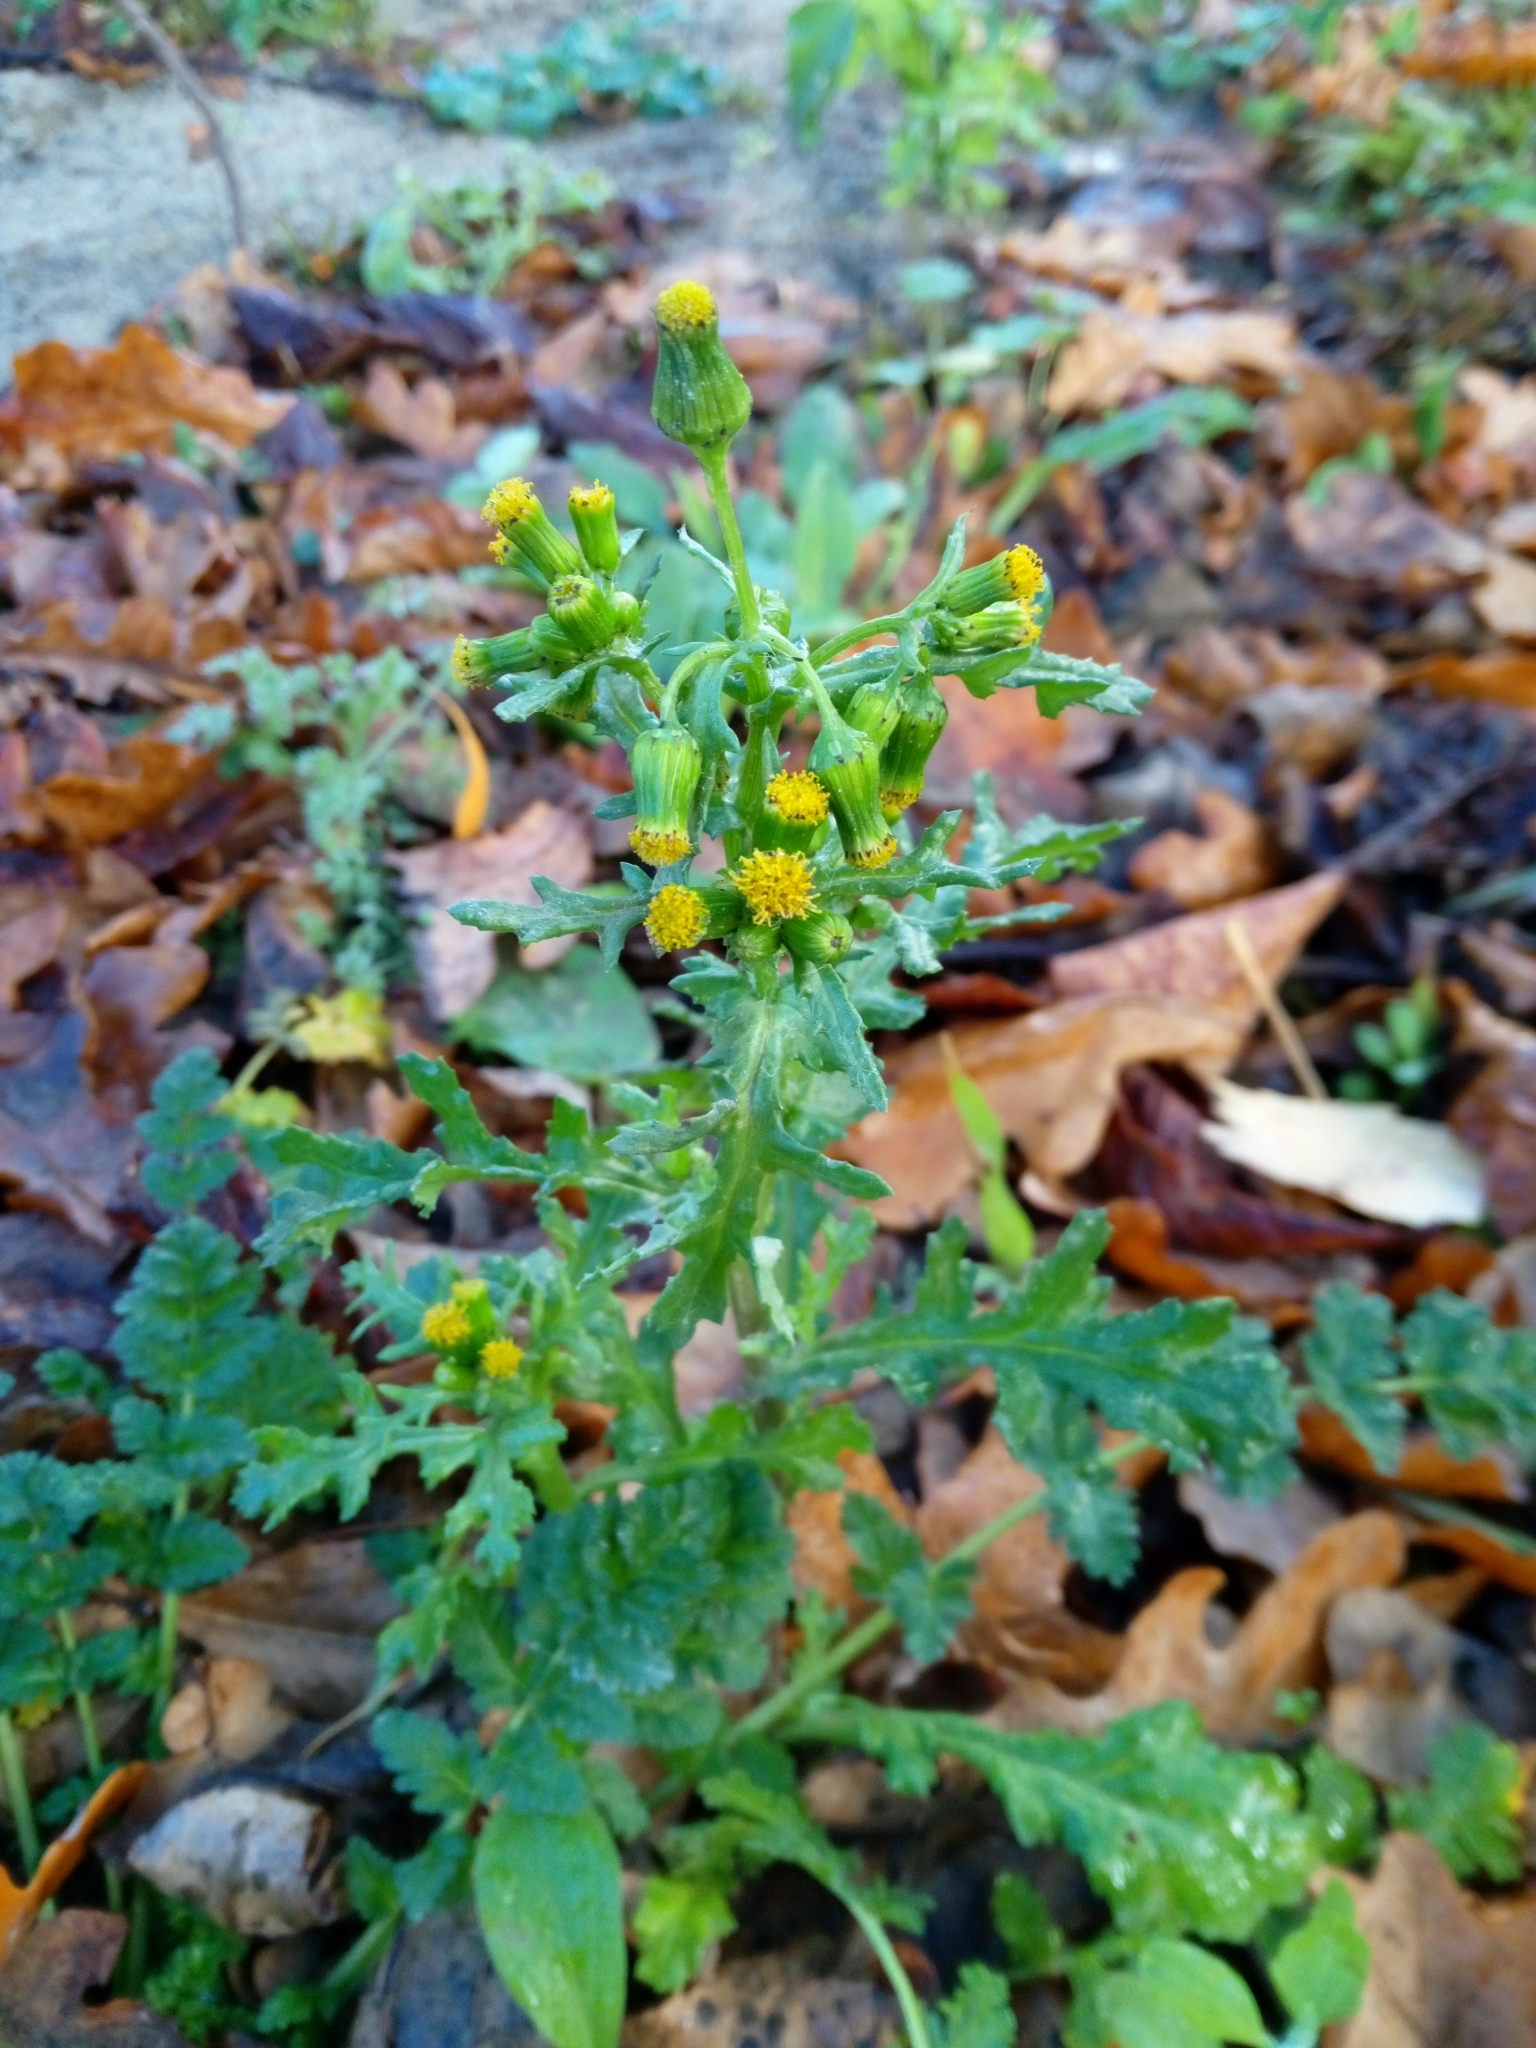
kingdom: Plantae
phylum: Tracheophyta
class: Magnoliopsida
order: Asterales
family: Asteraceae
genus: Senecio
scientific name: Senecio vulgaris
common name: Old-man-in-the-spring
